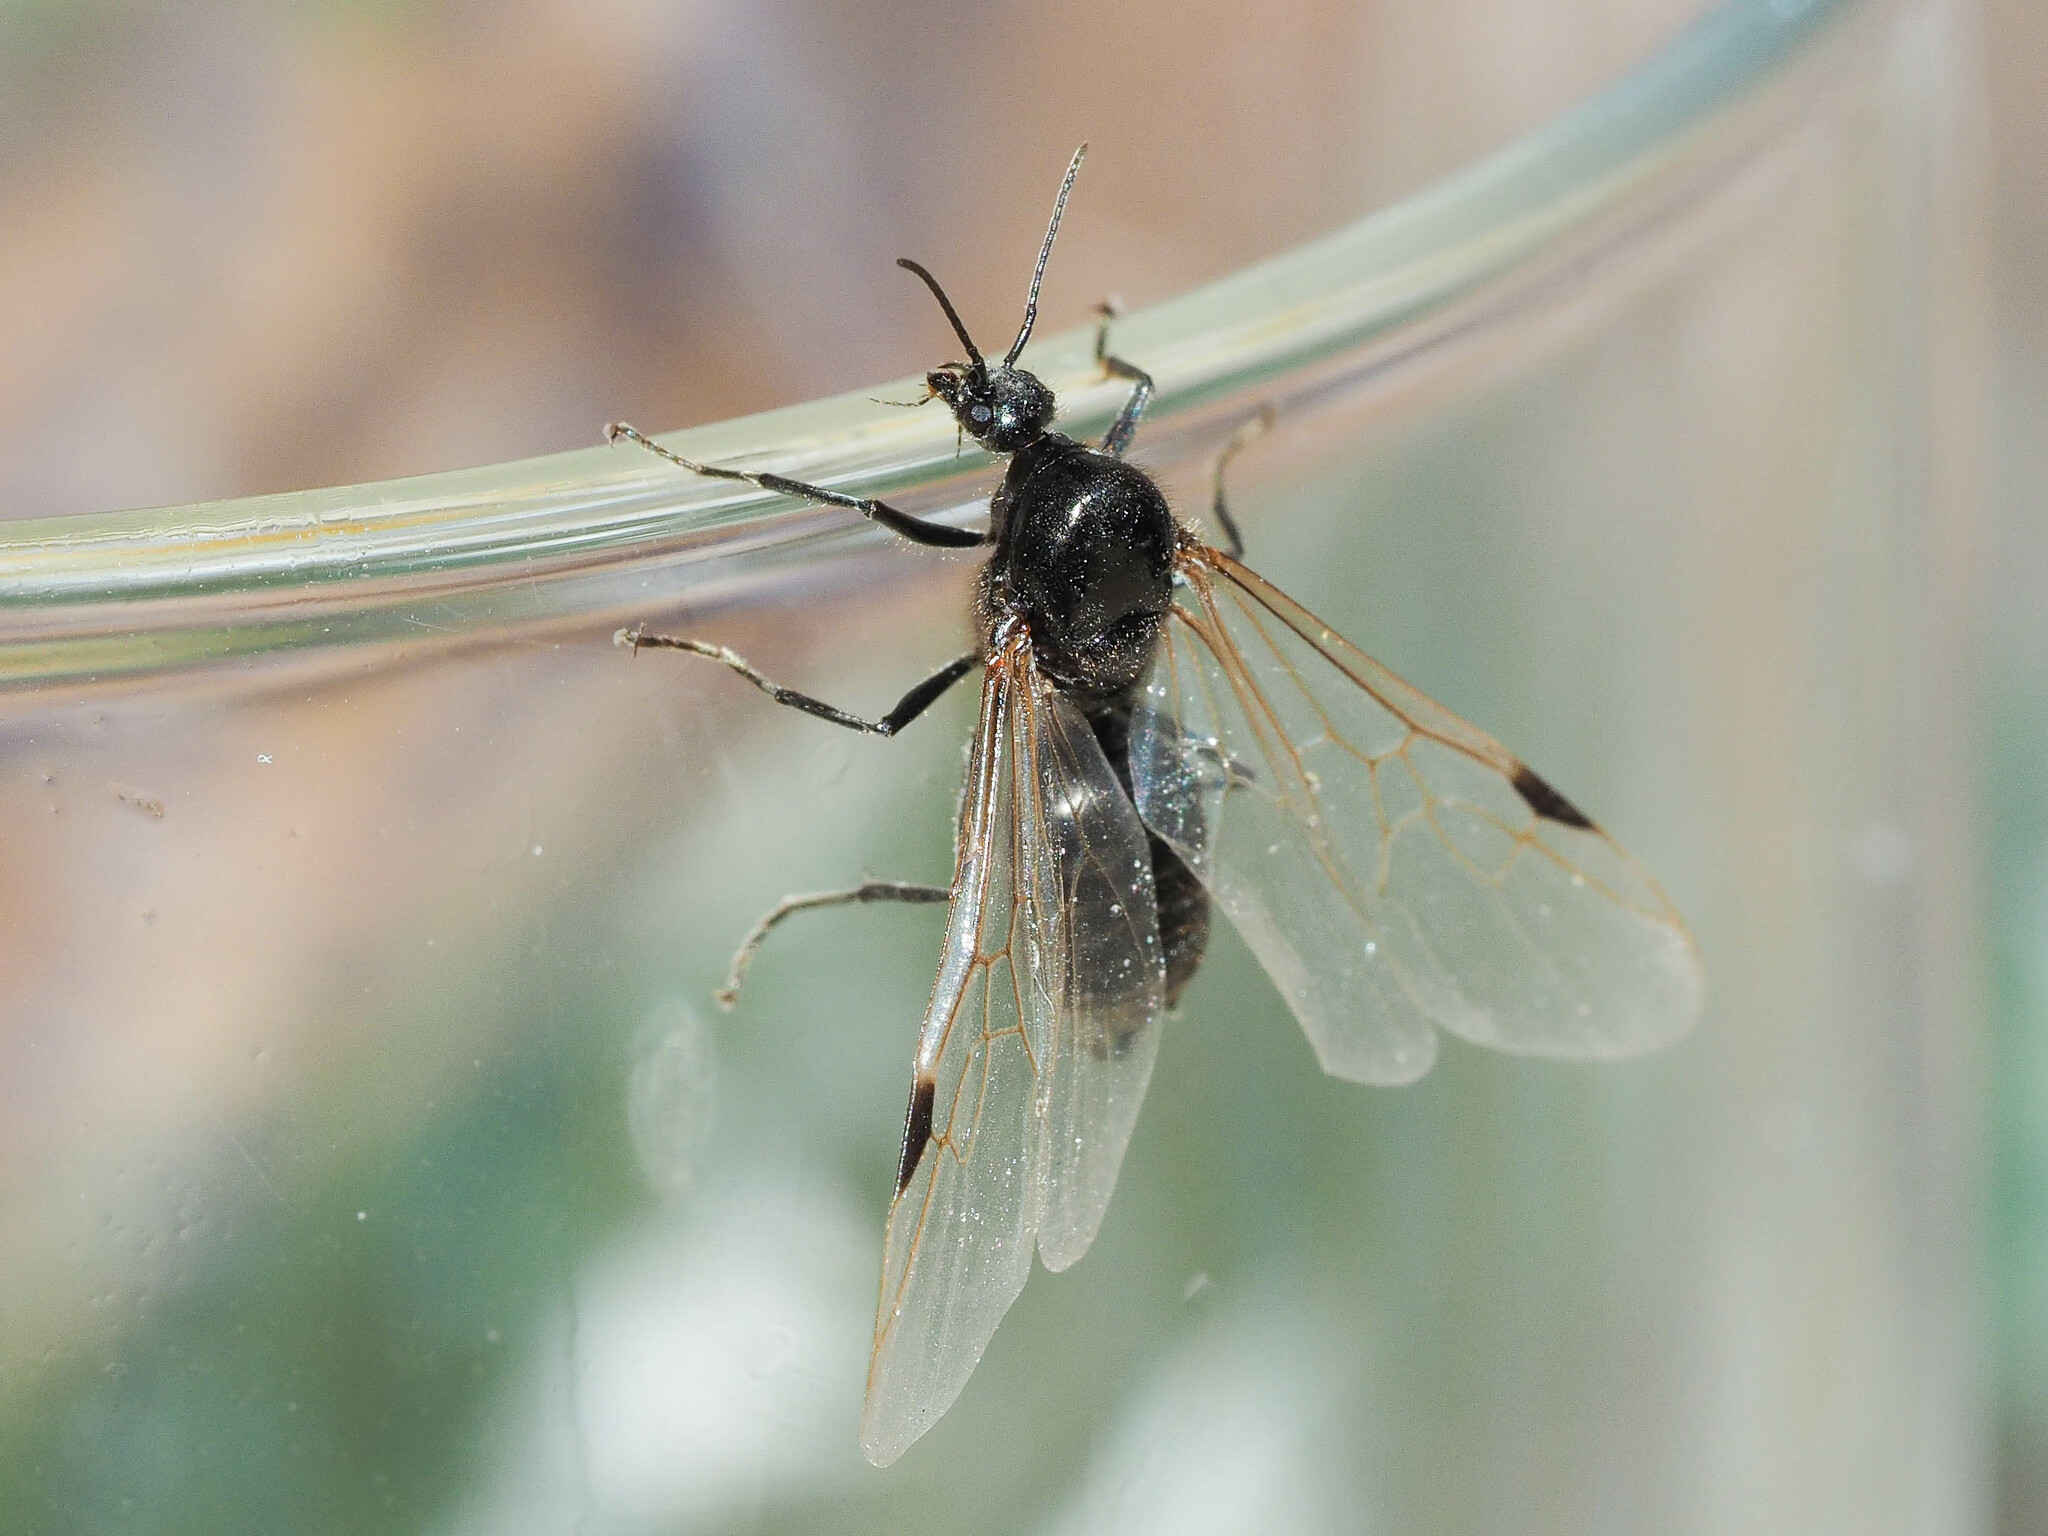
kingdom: Animalia
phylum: Arthropoda
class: Insecta
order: Hymenoptera
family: Formicidae
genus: Liometopum
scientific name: Liometopum microcephalum
